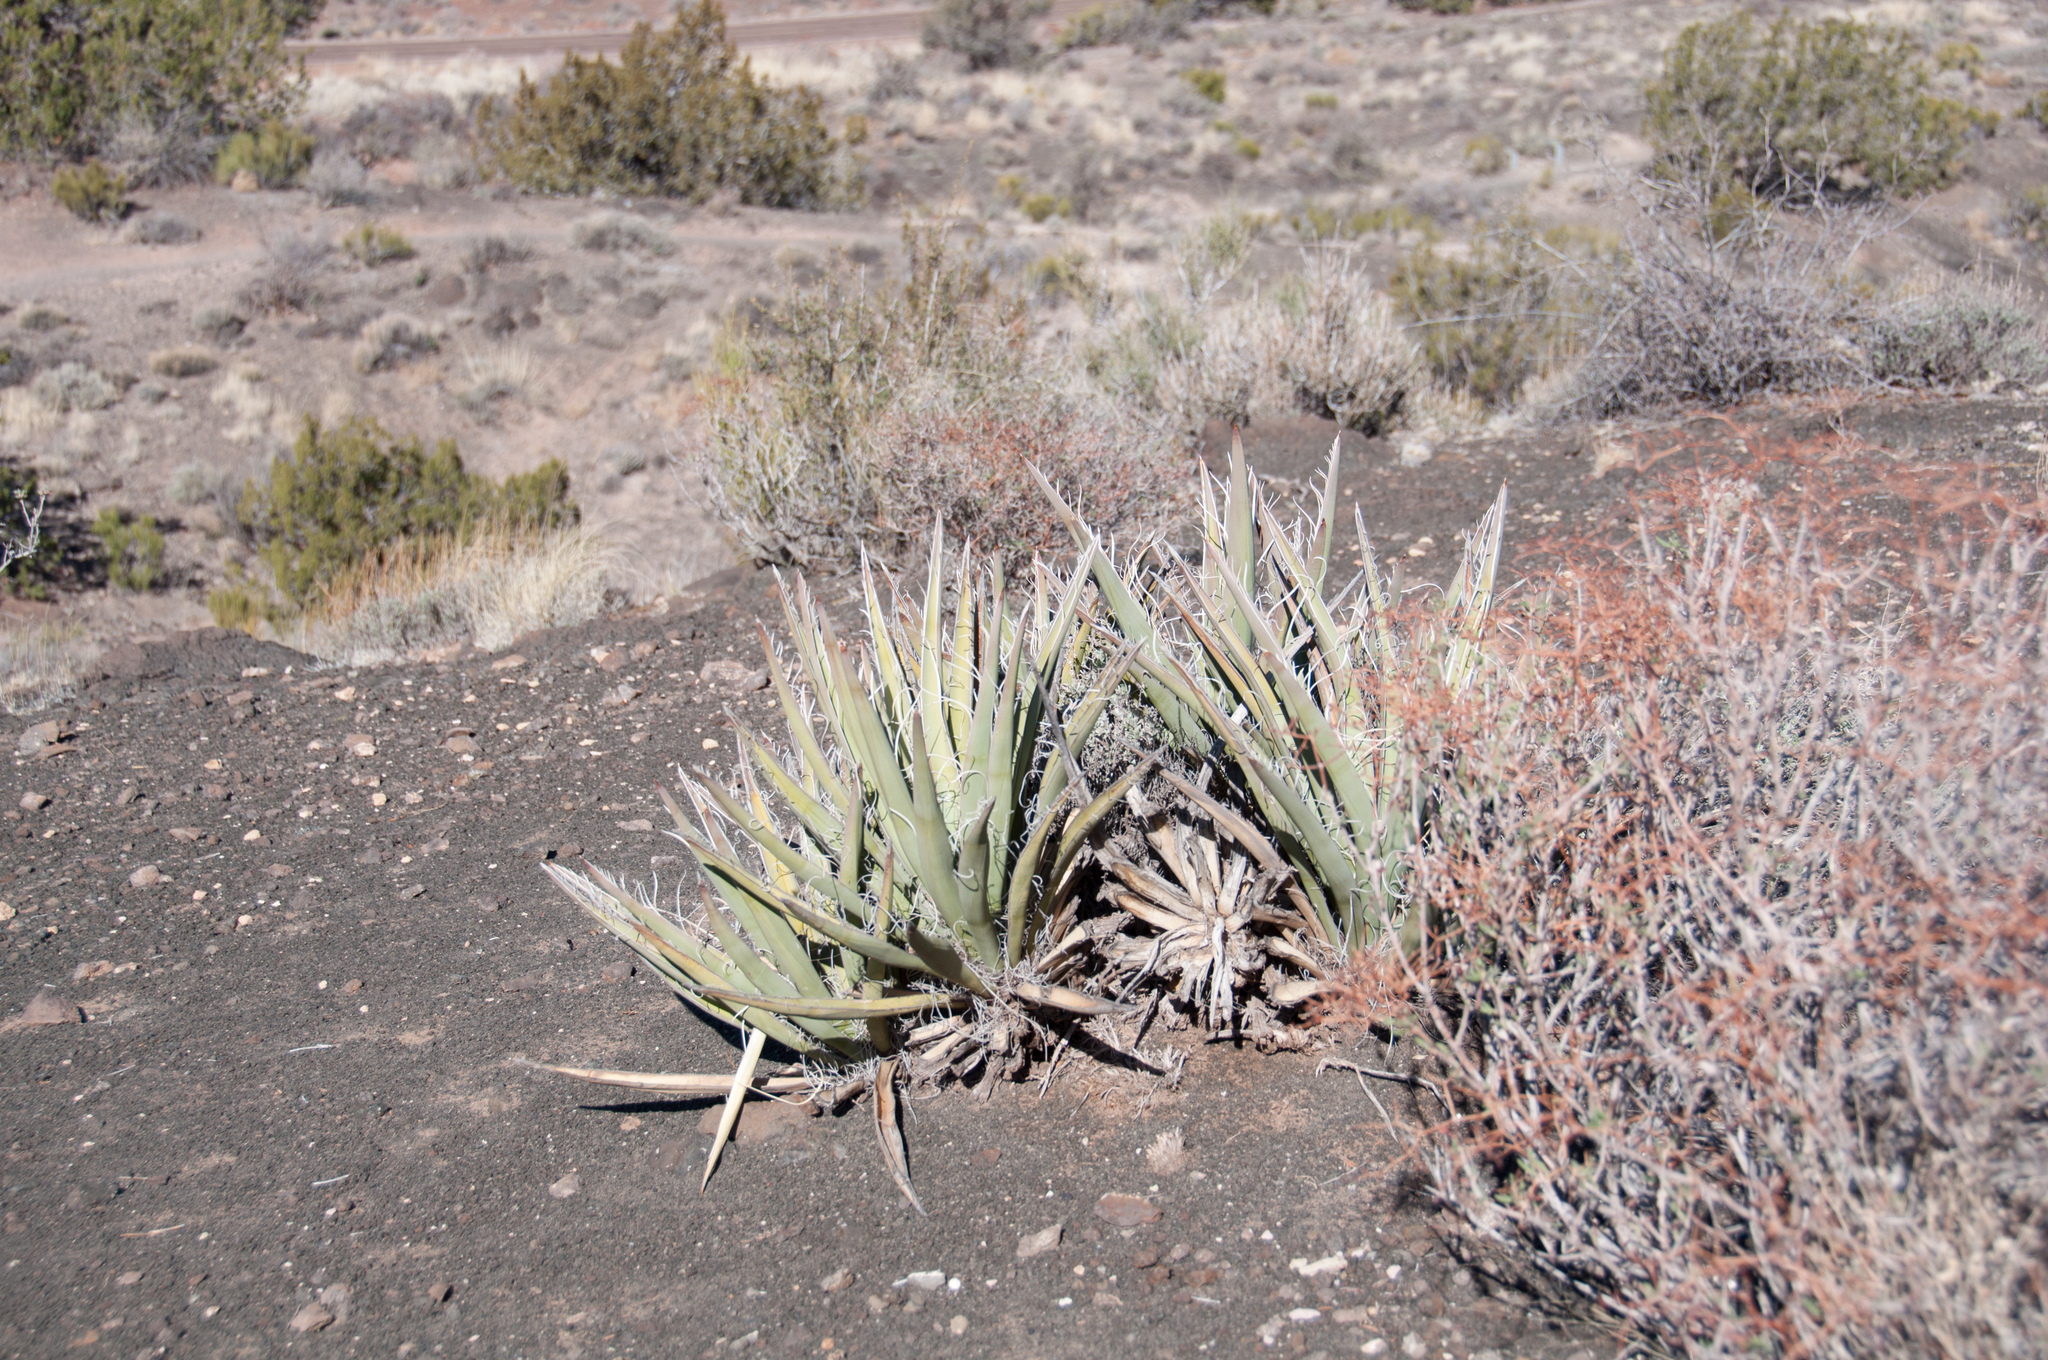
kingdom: Plantae
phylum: Tracheophyta
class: Liliopsida
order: Asparagales
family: Asparagaceae
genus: Yucca
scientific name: Yucca baccata
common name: Banana yucca
